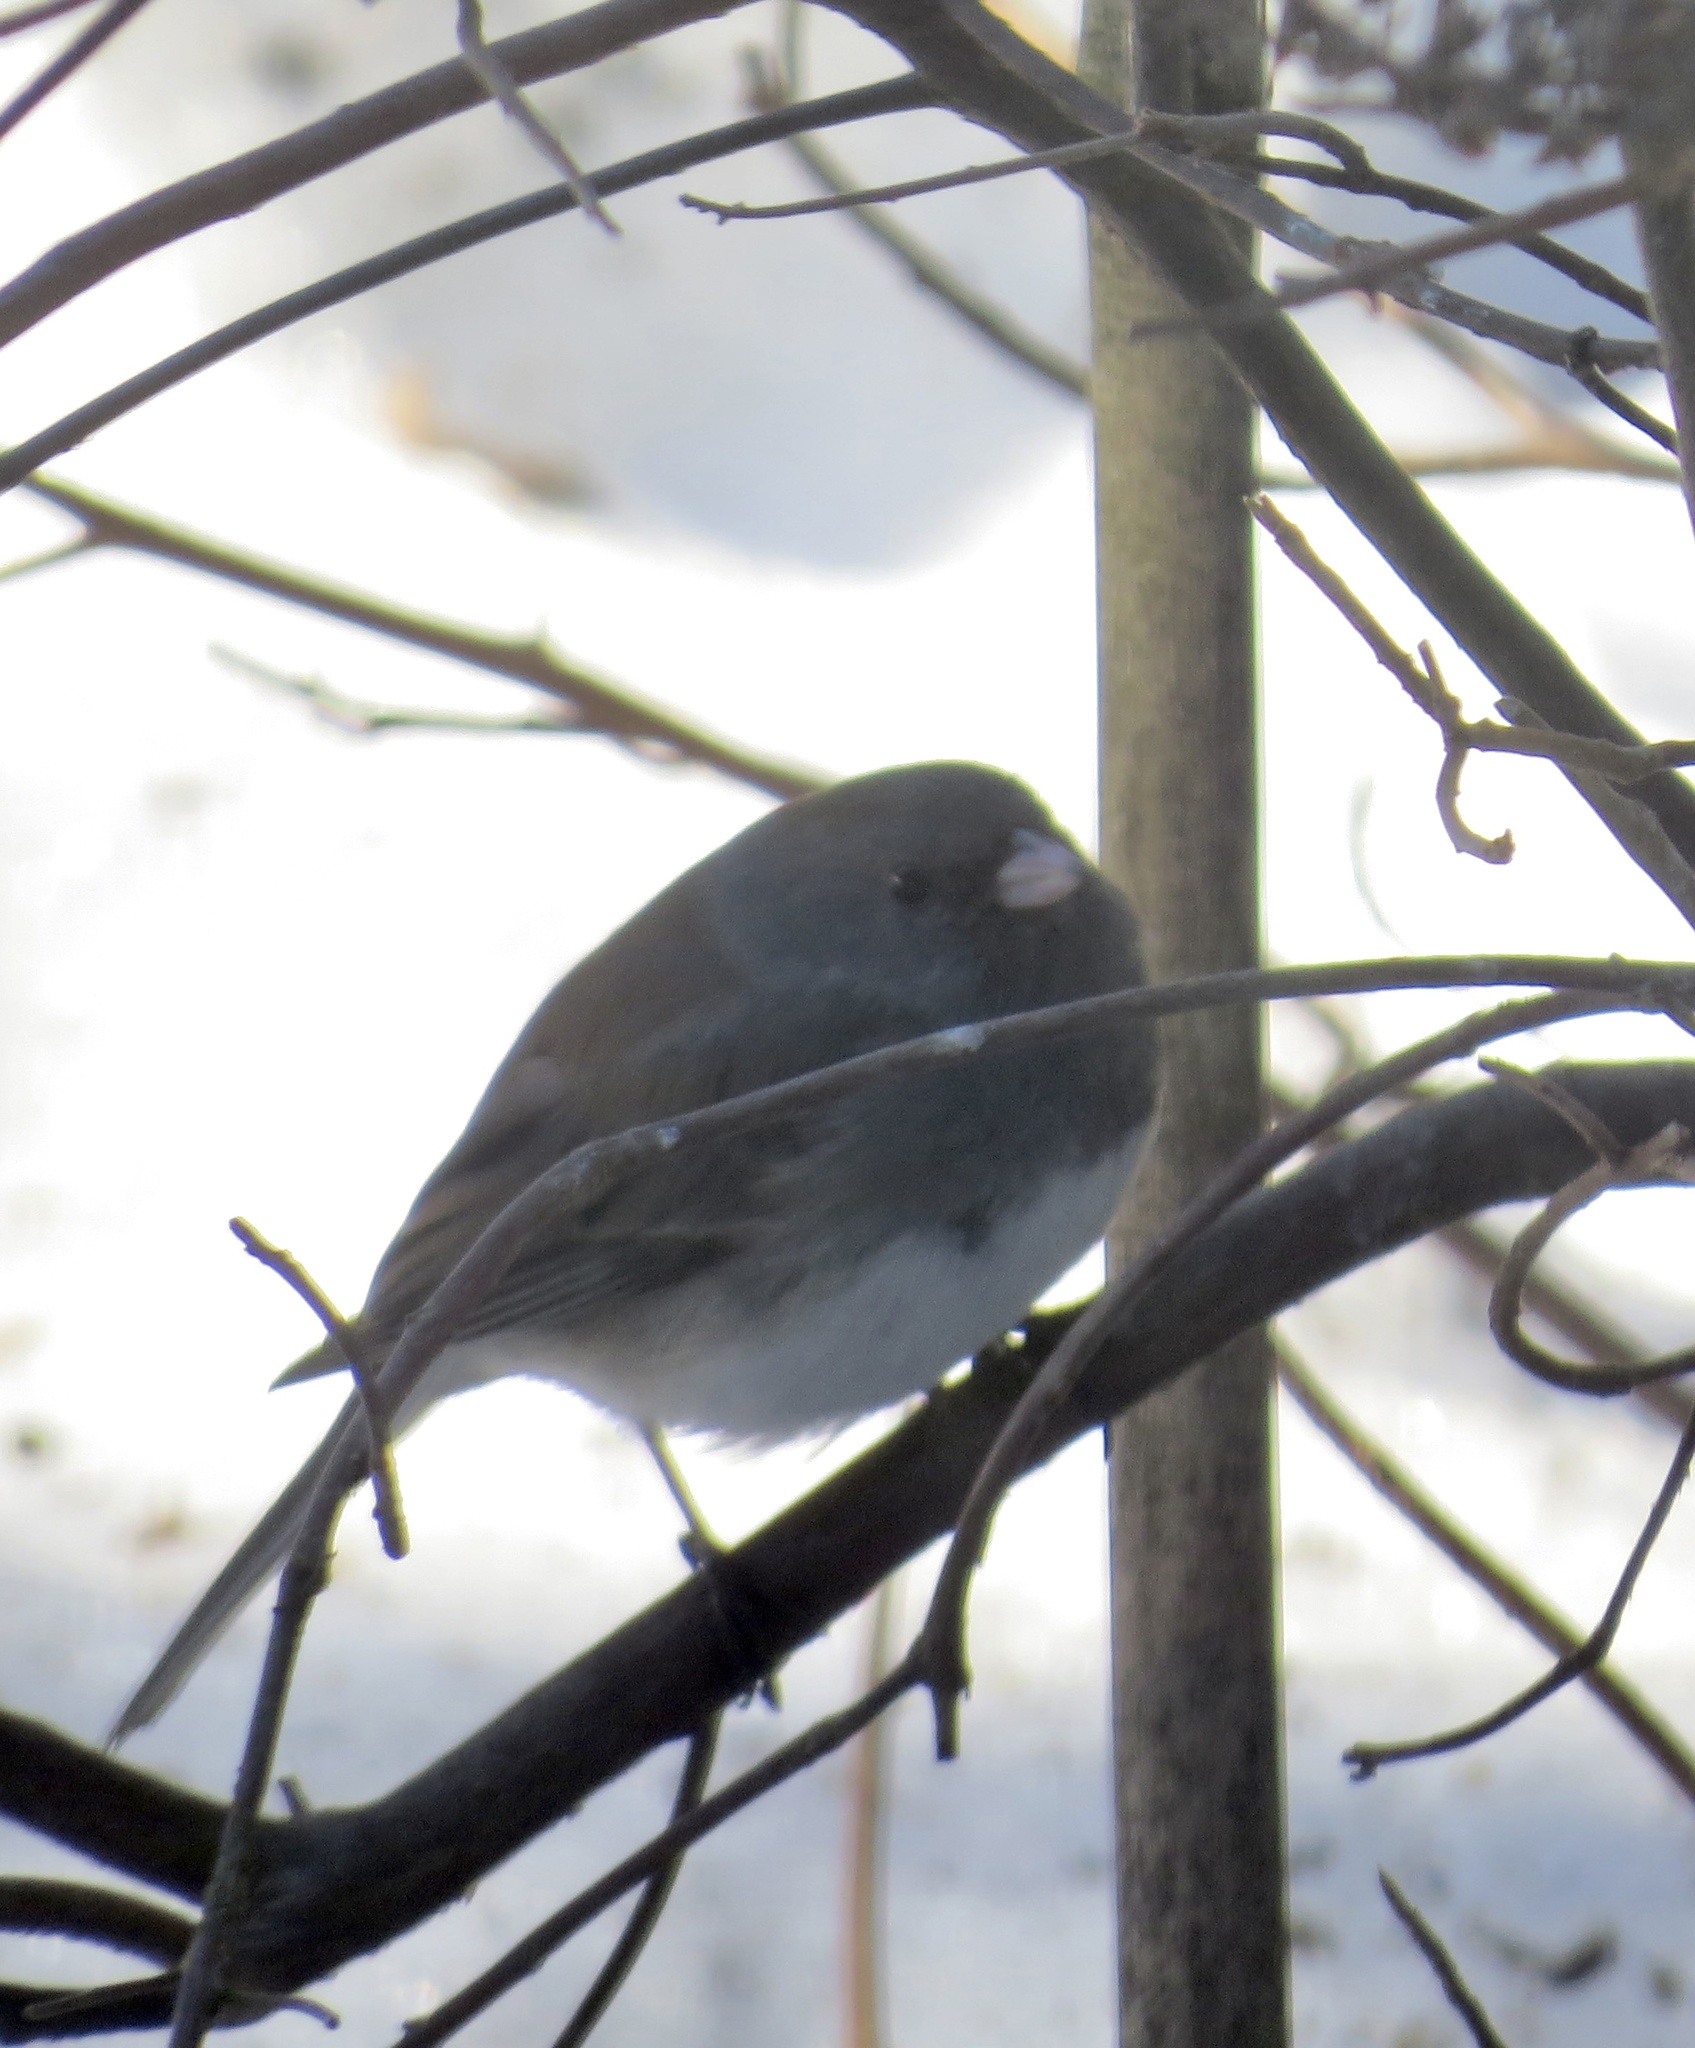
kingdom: Animalia
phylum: Chordata
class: Aves
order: Passeriformes
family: Passerellidae
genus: Junco
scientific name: Junco hyemalis
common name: Dark-eyed junco
